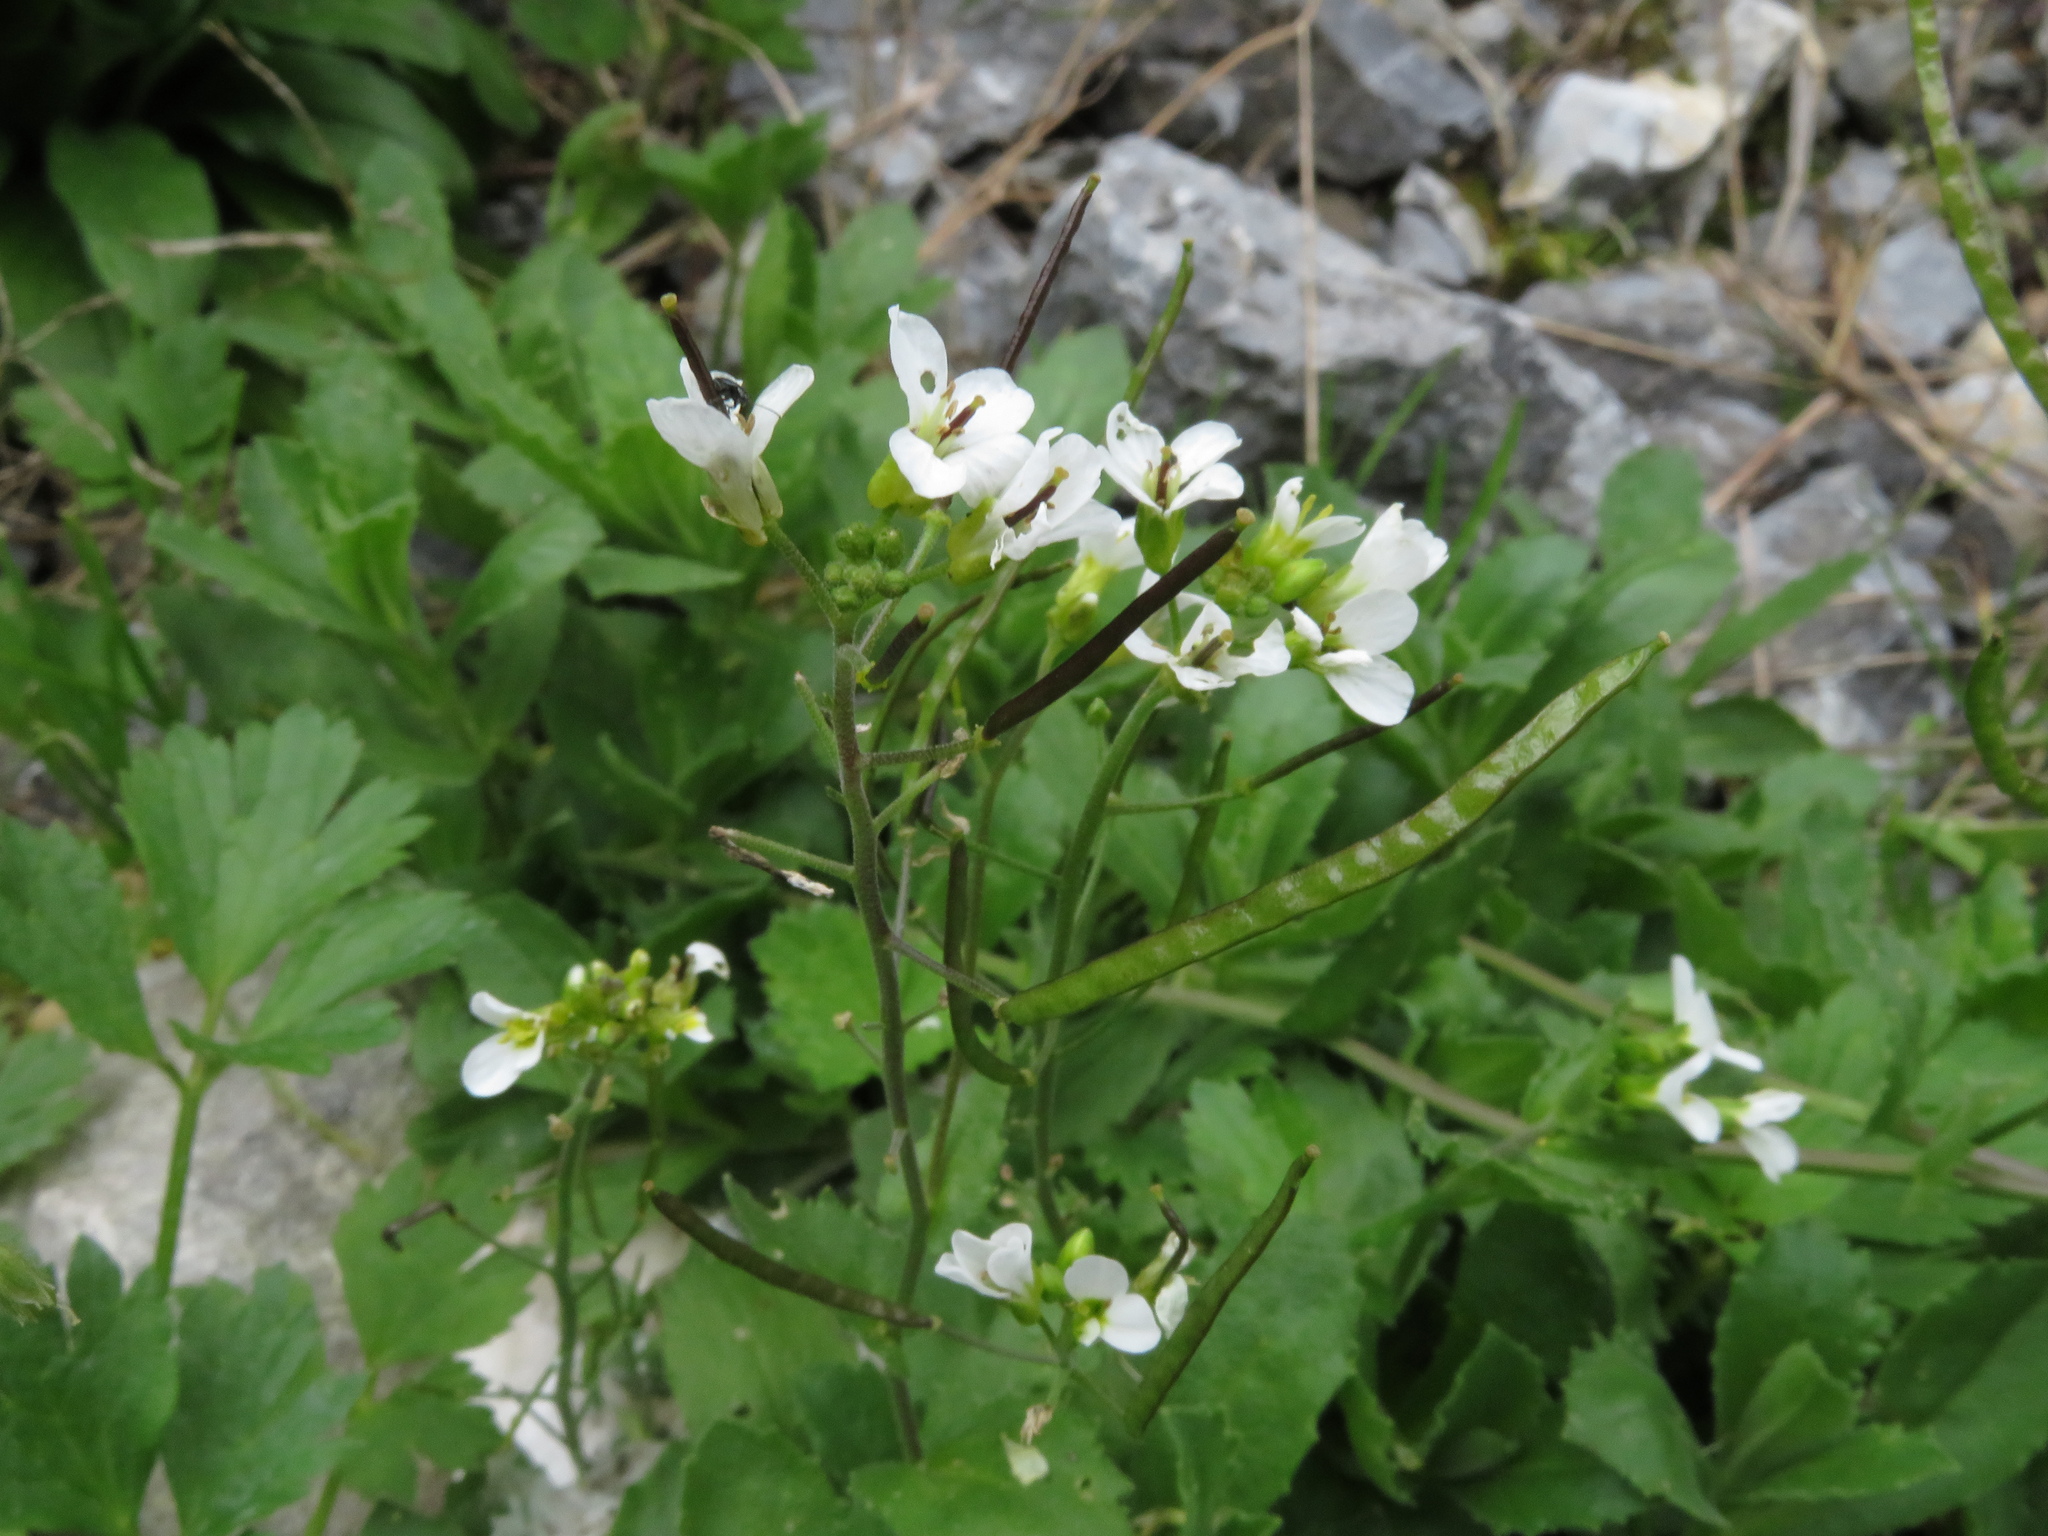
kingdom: Plantae
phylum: Tracheophyta
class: Magnoliopsida
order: Brassicales
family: Brassicaceae
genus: Arabis
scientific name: Arabis alpina
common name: Alpine rock-cress
